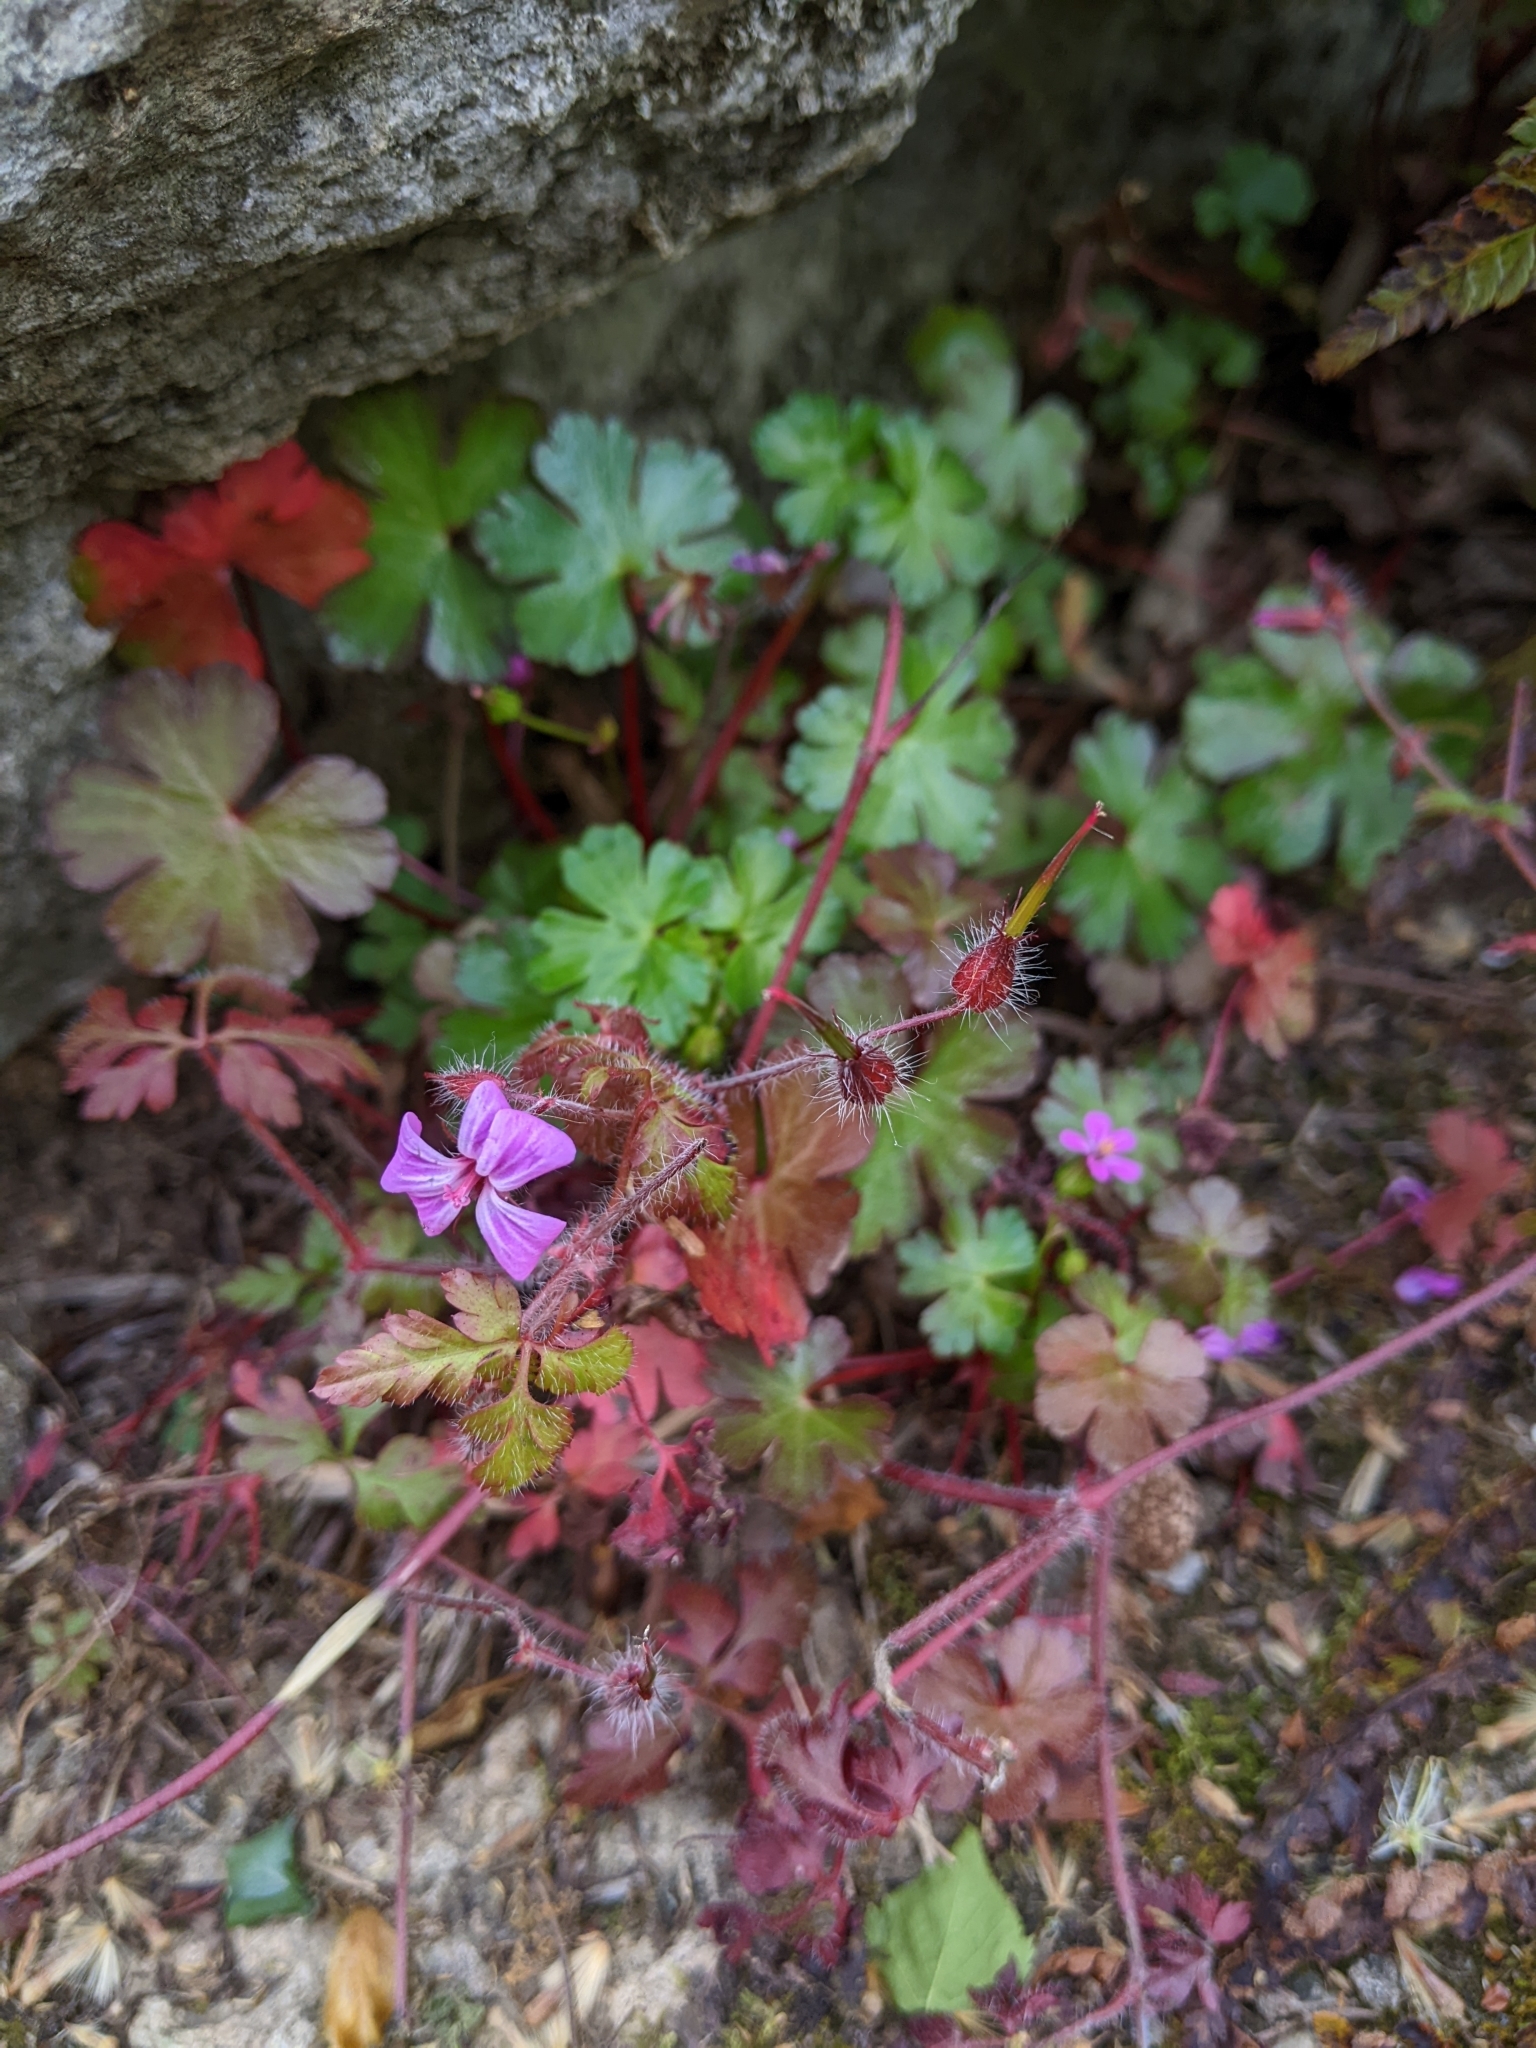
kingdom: Plantae
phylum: Tracheophyta
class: Magnoliopsida
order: Geraniales
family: Geraniaceae
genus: Geranium
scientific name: Geranium lucidum
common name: Shining crane's-bill
